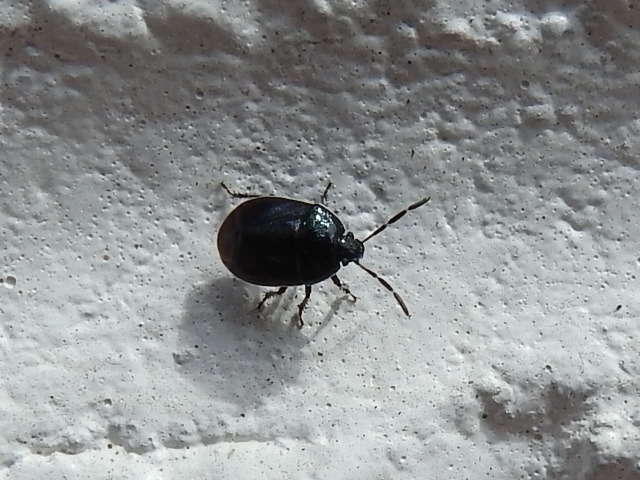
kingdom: Animalia
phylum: Arthropoda
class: Insecta
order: Hemiptera
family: Cydnidae
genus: Sehirus
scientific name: Sehirus cinctus
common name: White-margined burrower bug
